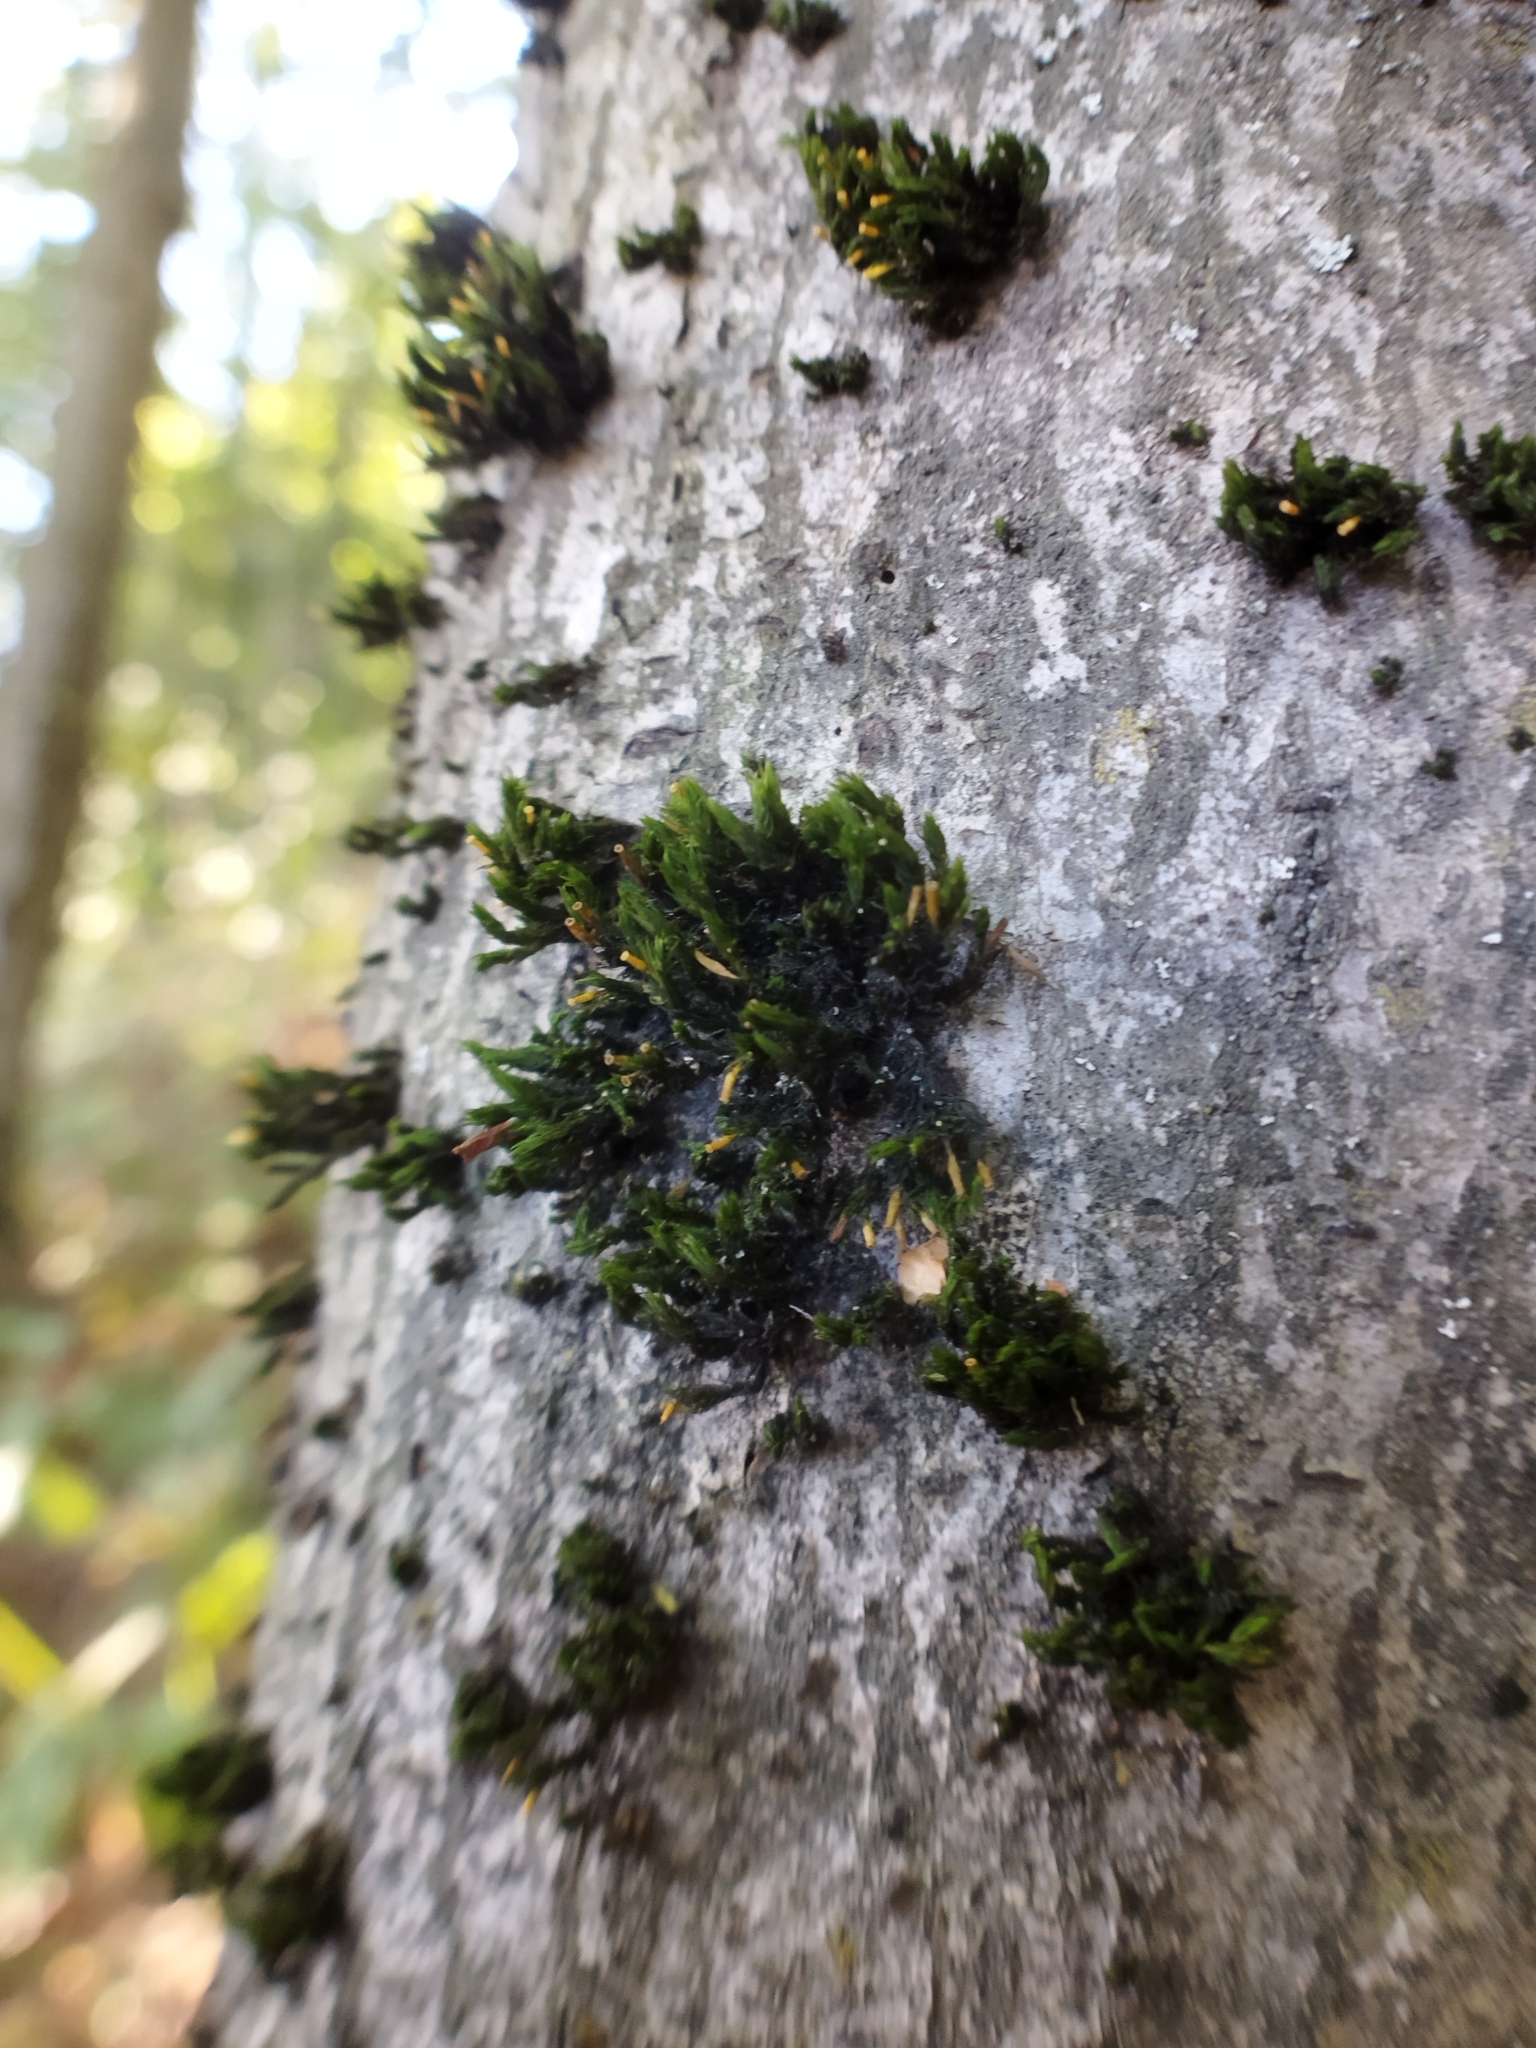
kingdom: Plantae
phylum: Bryophyta
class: Bryopsida
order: Orthotrichales
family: Orthotrichaceae
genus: Lewinskya
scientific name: Lewinskya speciosa
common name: Showy bristle moss
